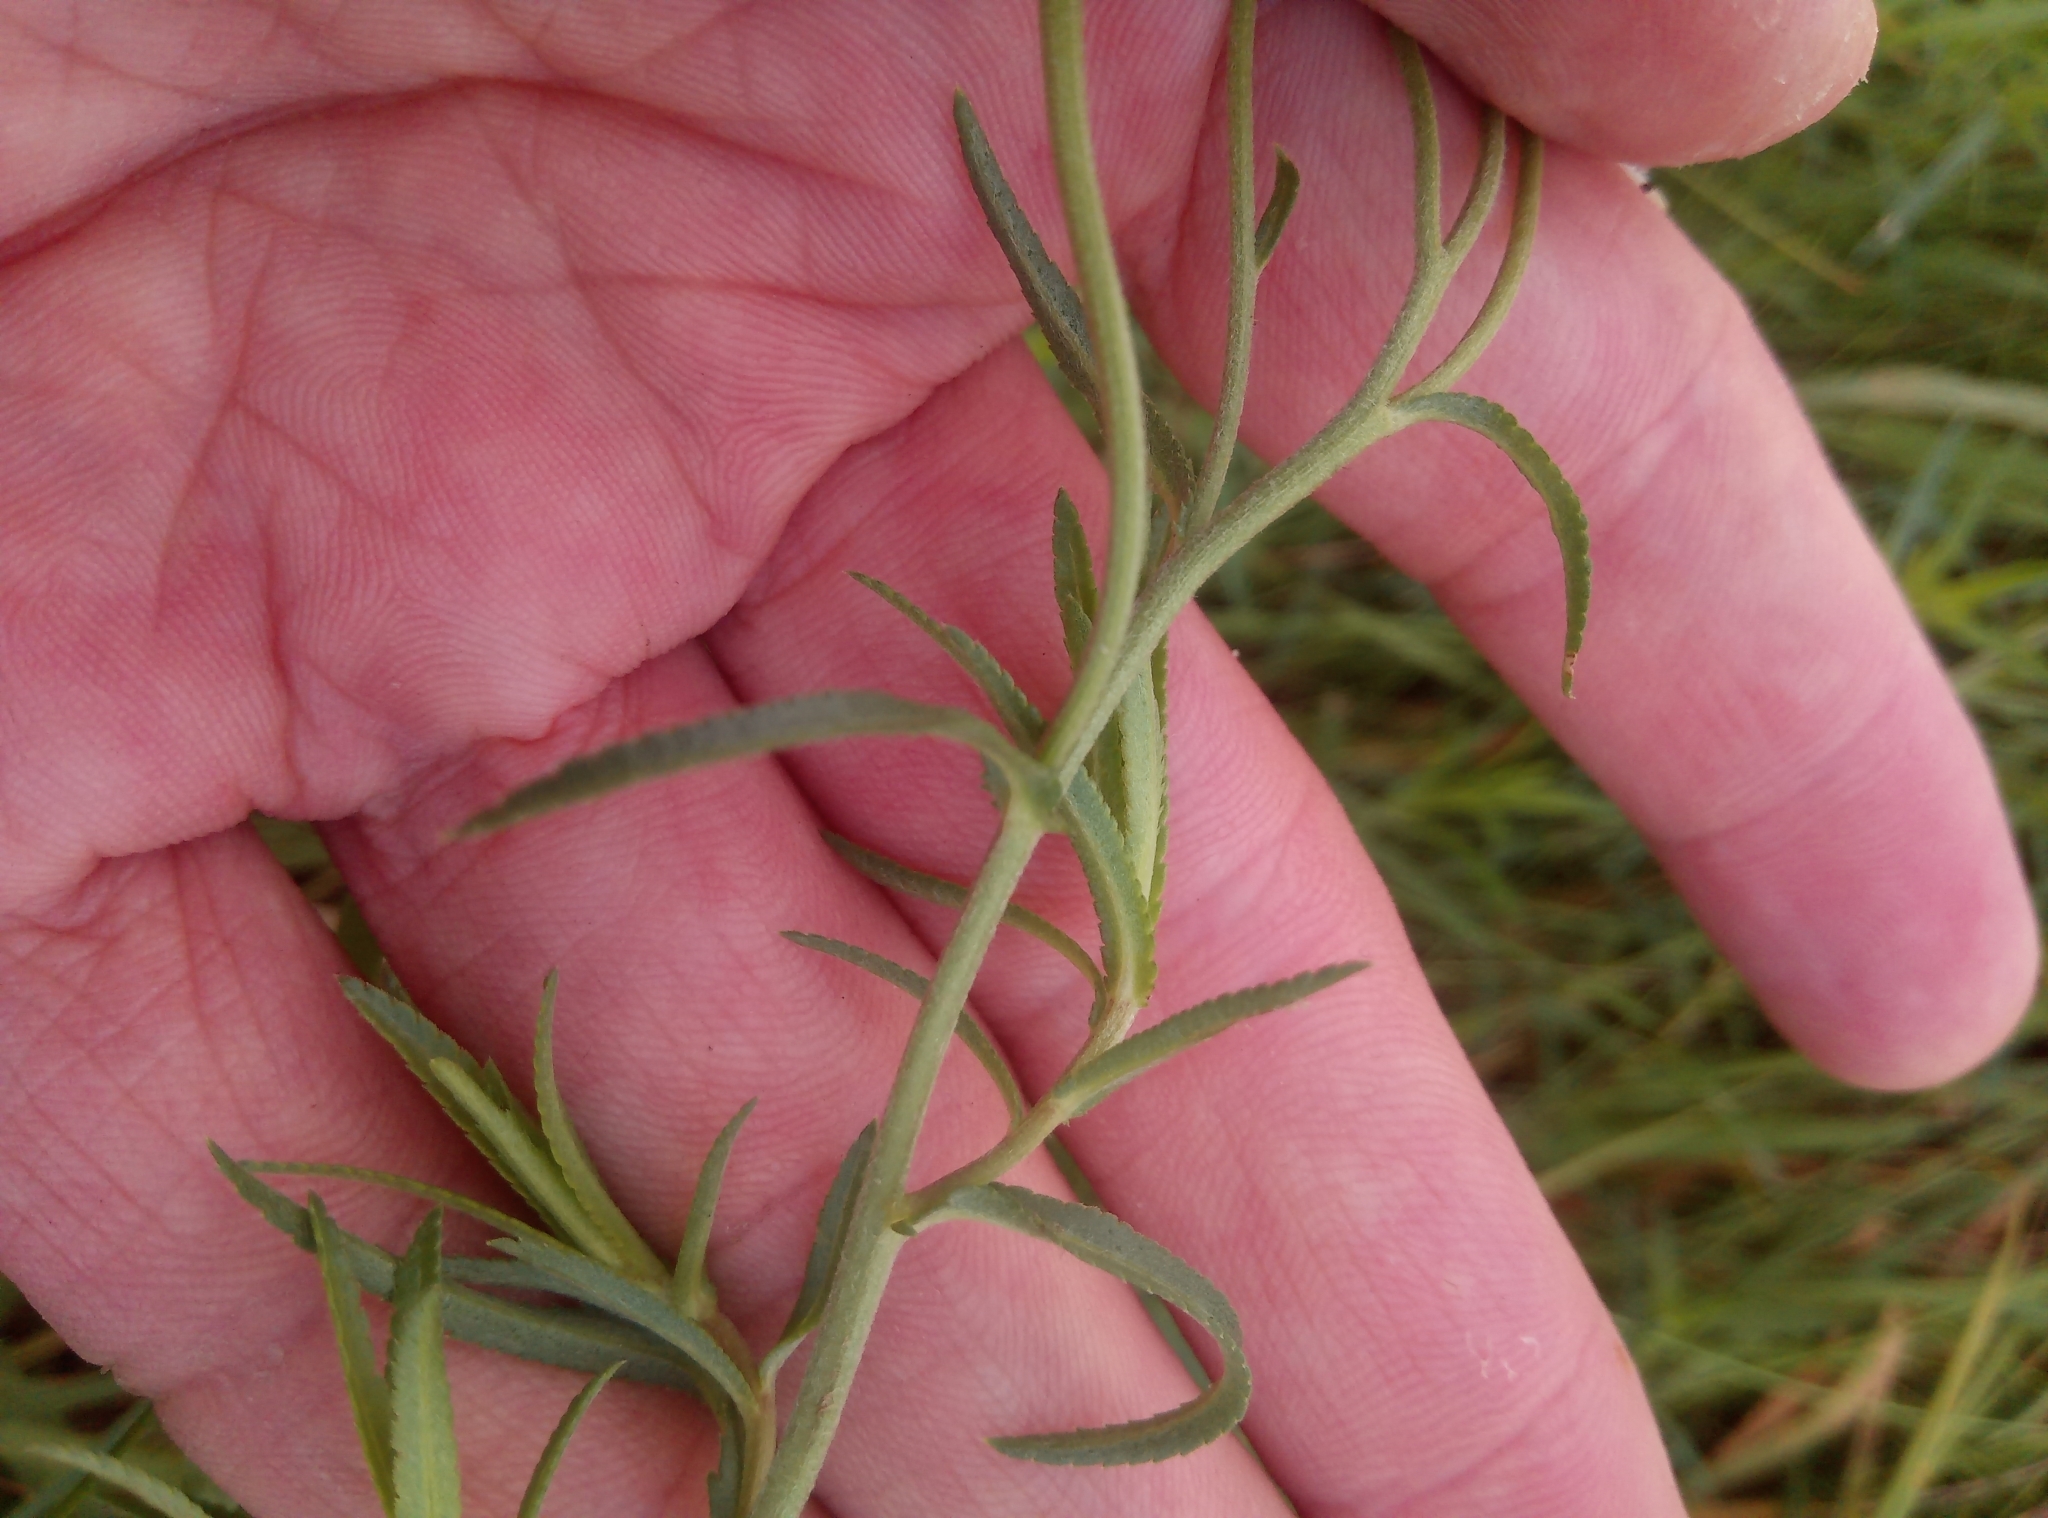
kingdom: Plantae
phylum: Tracheophyta
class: Magnoliopsida
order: Asterales
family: Asteraceae
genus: Achillea
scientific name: Achillea ptarmica
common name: Sneezeweed
